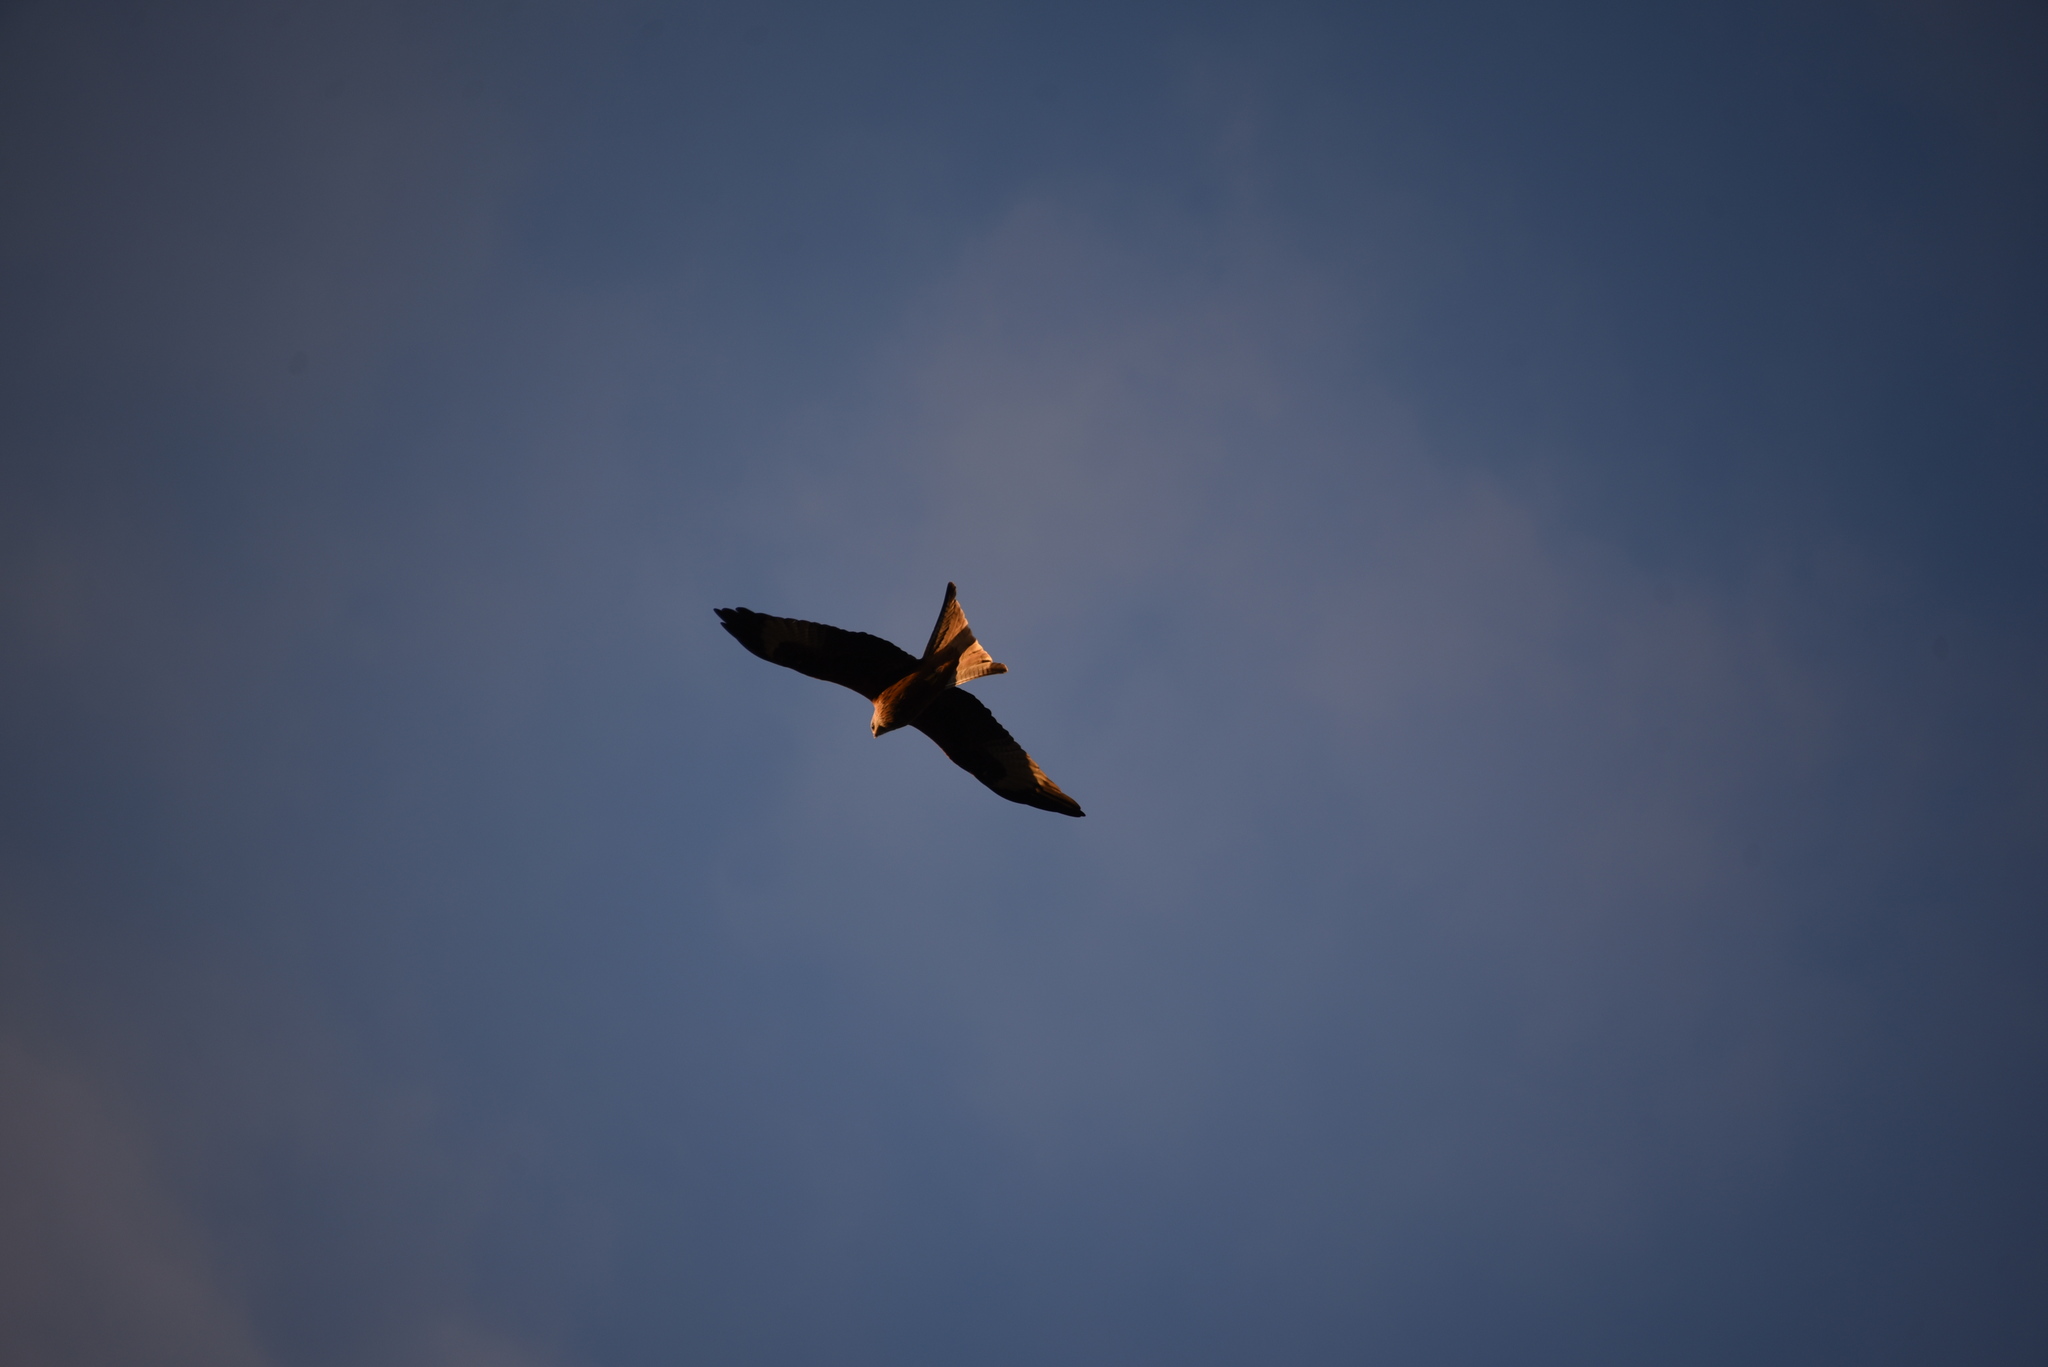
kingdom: Animalia
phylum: Chordata
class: Aves
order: Accipitriformes
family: Accipitridae
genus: Milvus
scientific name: Milvus milvus
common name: Red kite
